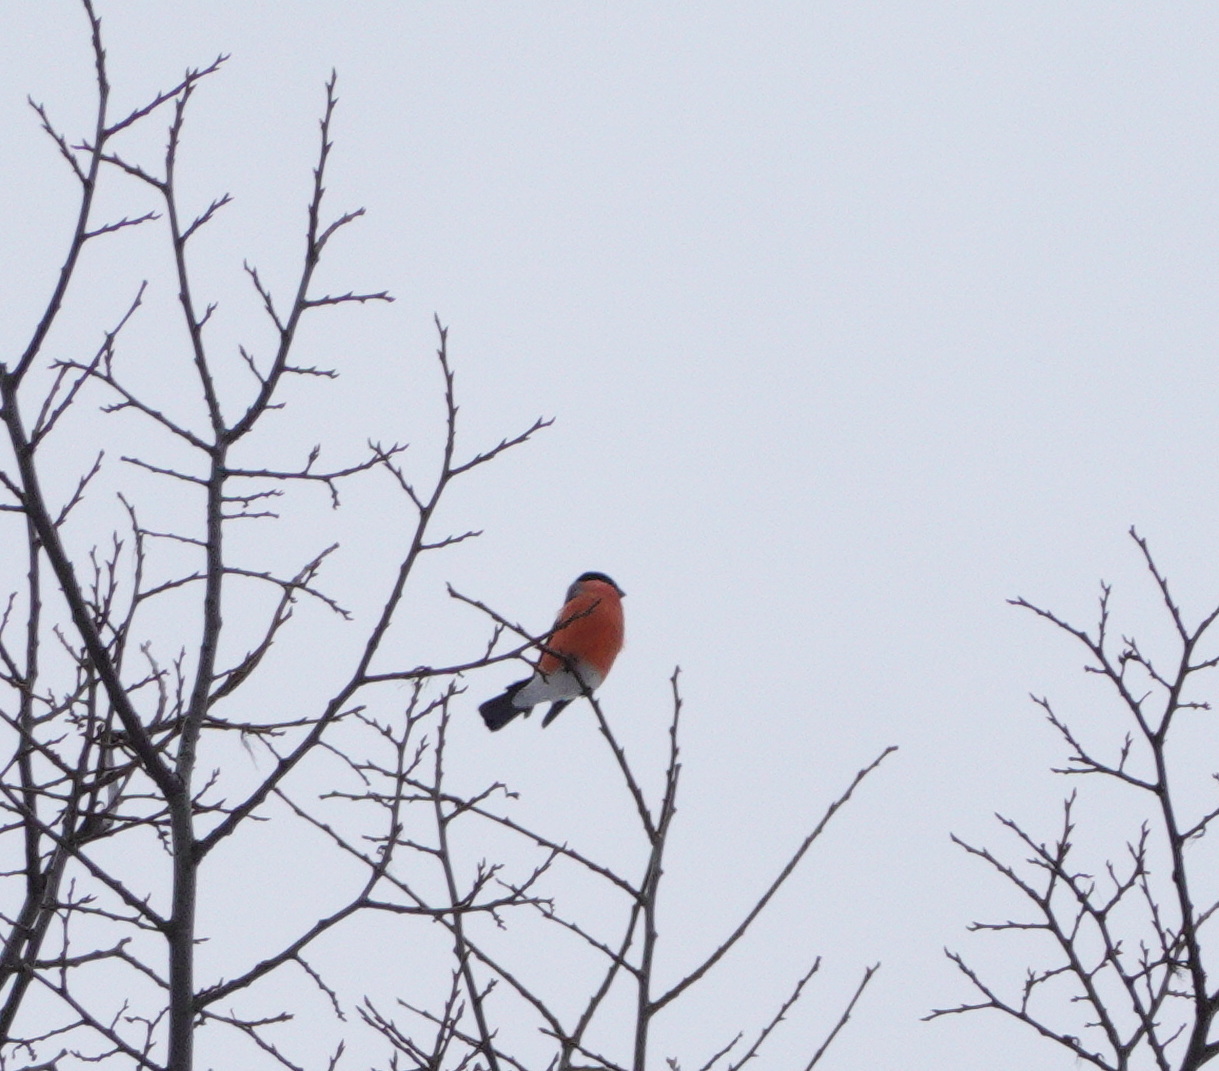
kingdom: Animalia
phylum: Chordata
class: Aves
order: Passeriformes
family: Fringillidae
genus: Pyrrhula
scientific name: Pyrrhula pyrrhula
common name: Eurasian bullfinch
